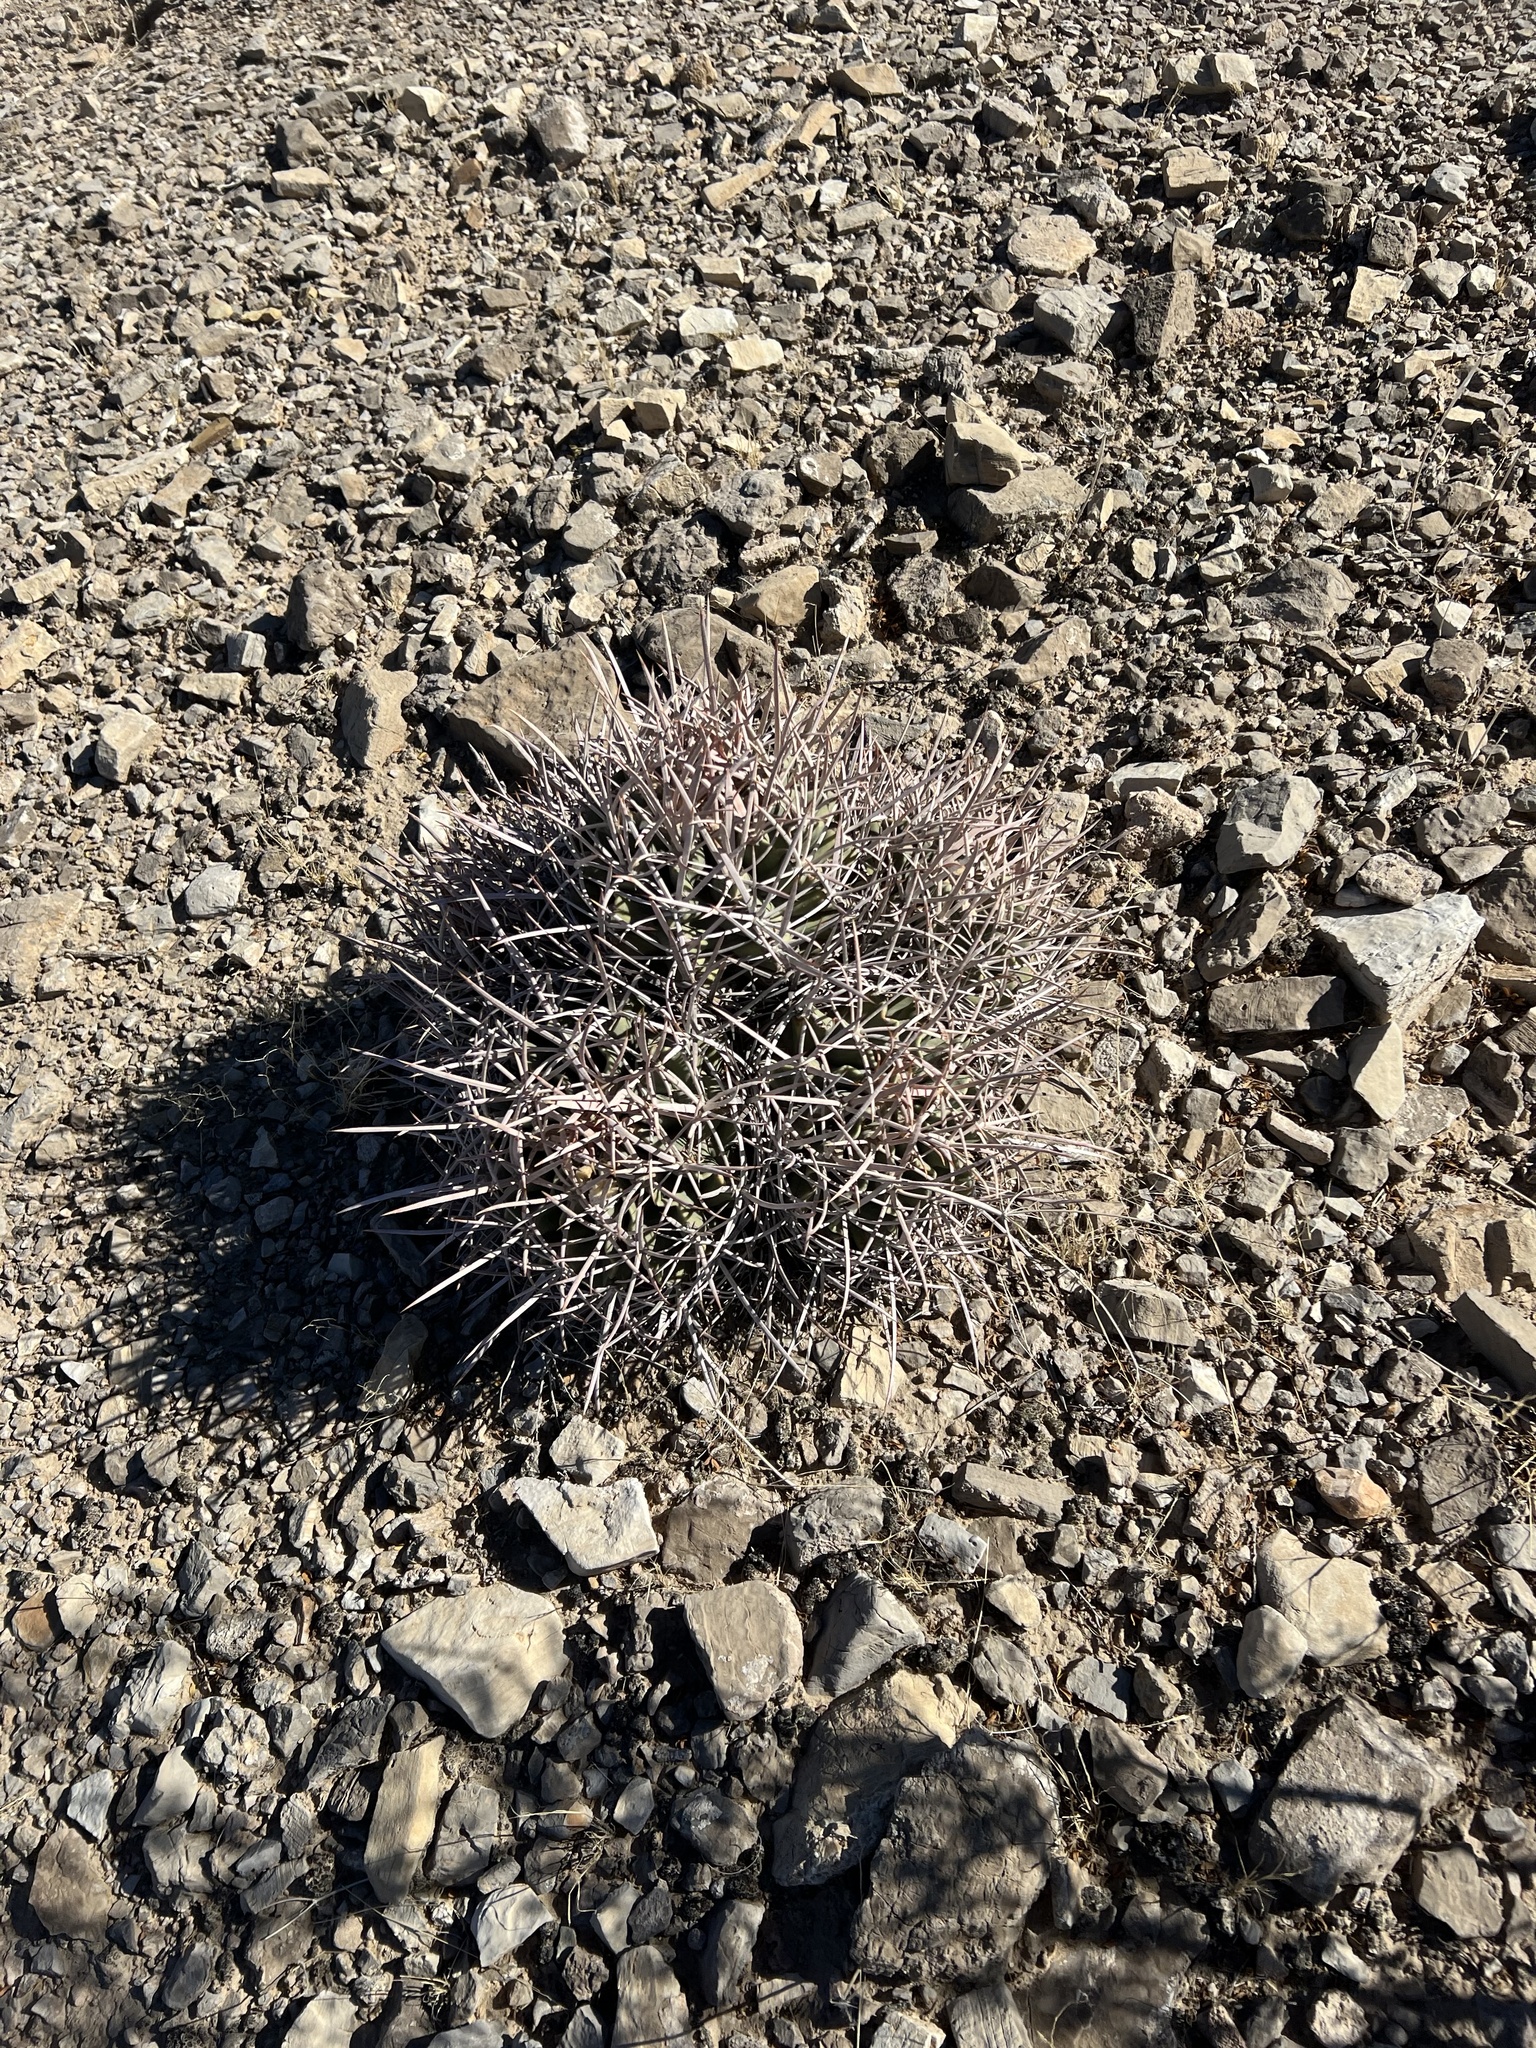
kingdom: Plantae
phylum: Tracheophyta
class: Magnoliopsida
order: Caryophyllales
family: Cactaceae
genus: Echinocactus
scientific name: Echinocactus polycephalus
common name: Cottontop cactus
